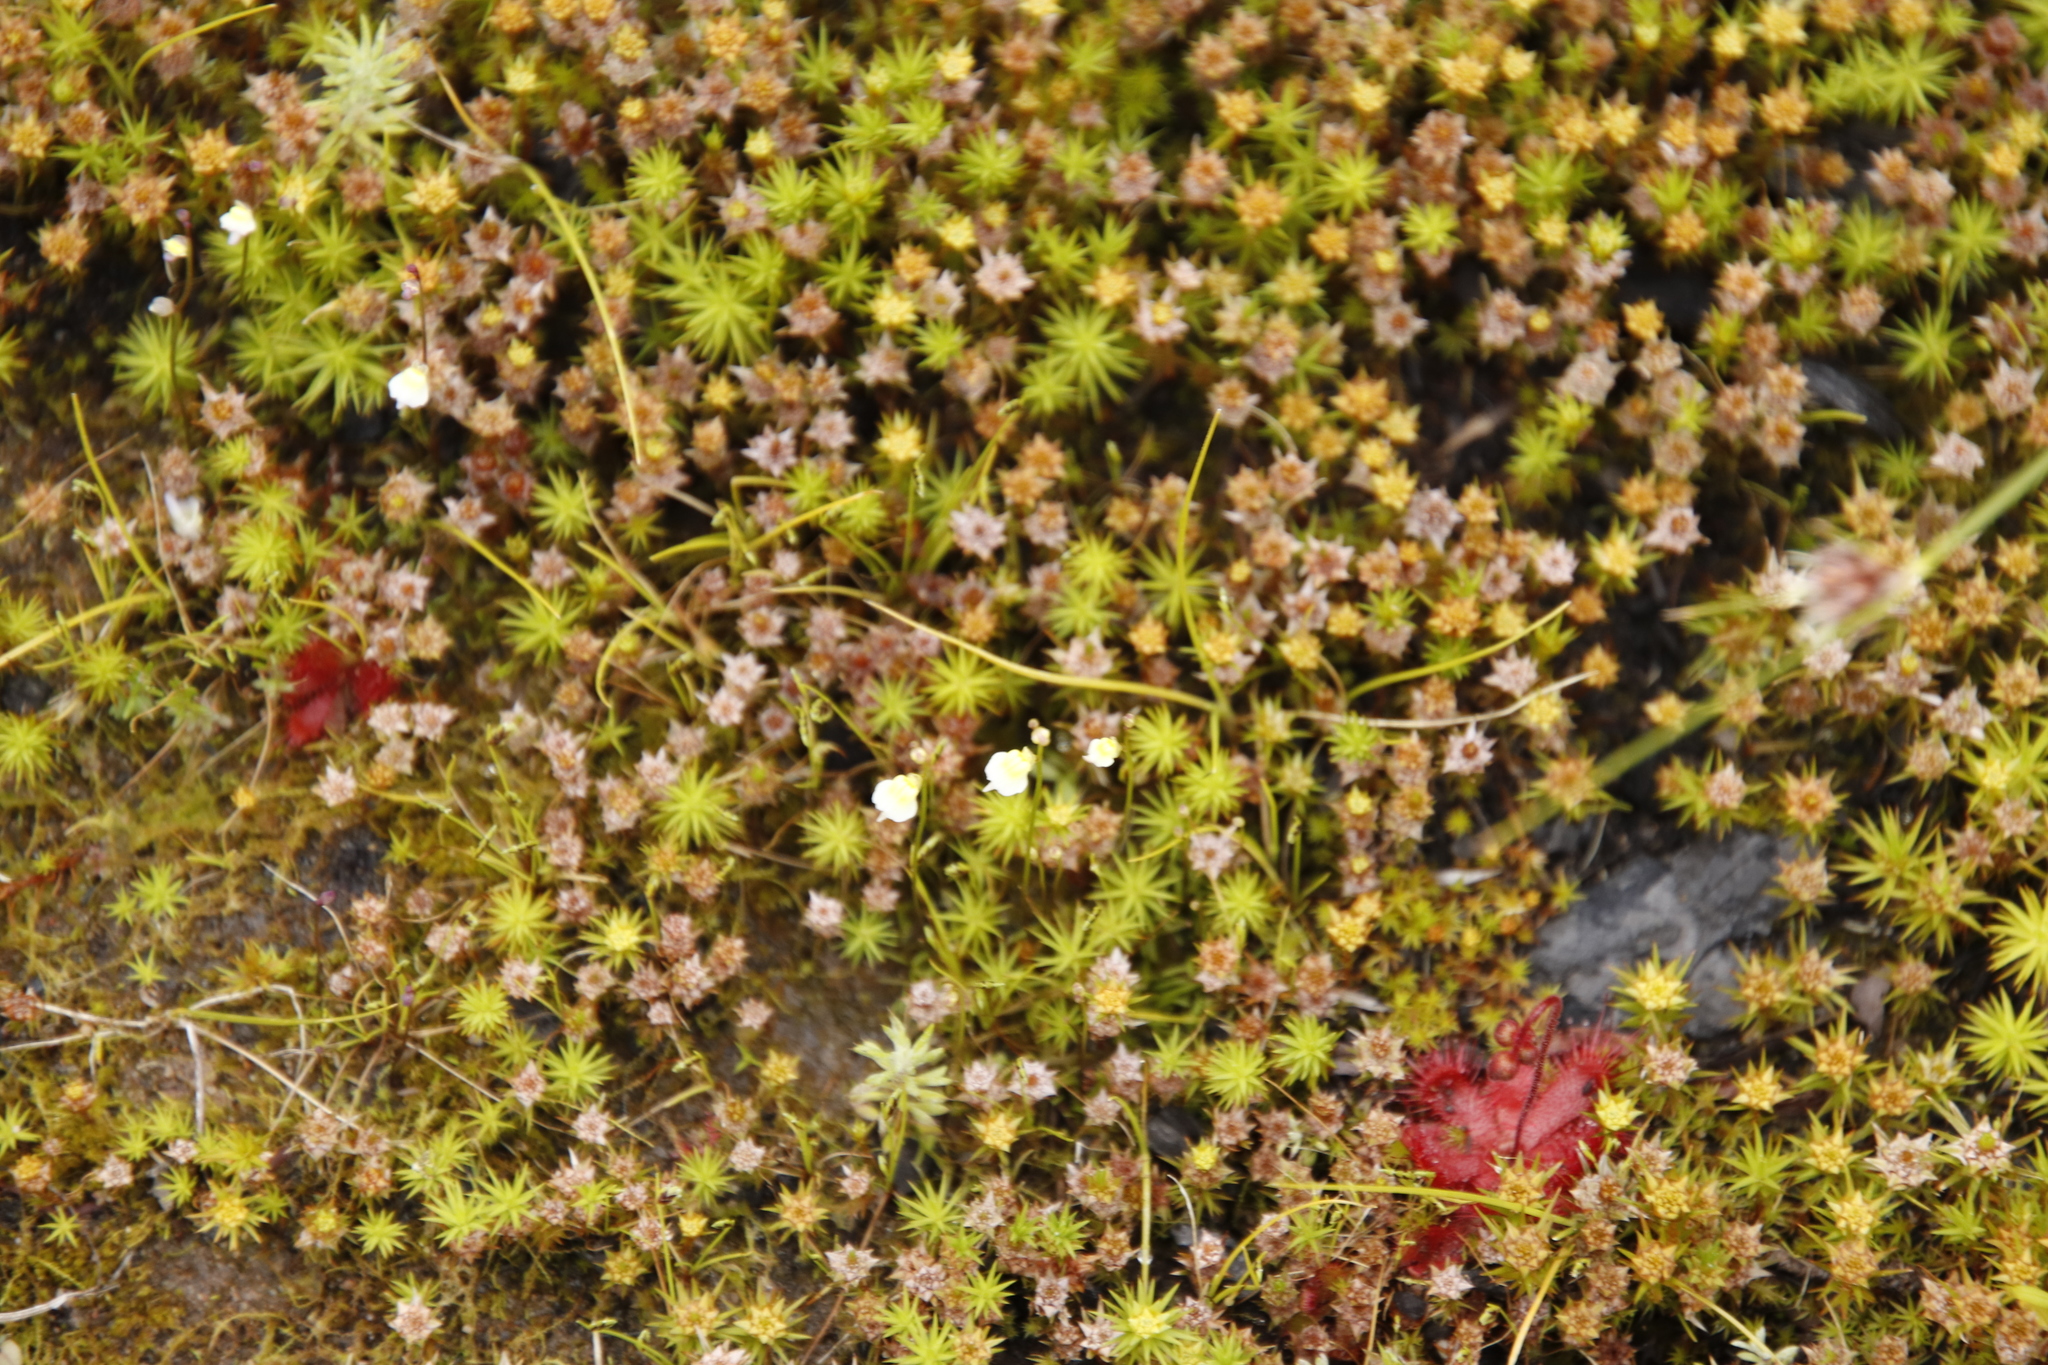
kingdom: Plantae
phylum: Tracheophyta
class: Magnoliopsida
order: Lamiales
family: Lentibulariaceae
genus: Utricularia
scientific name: Utricularia bisquamata
